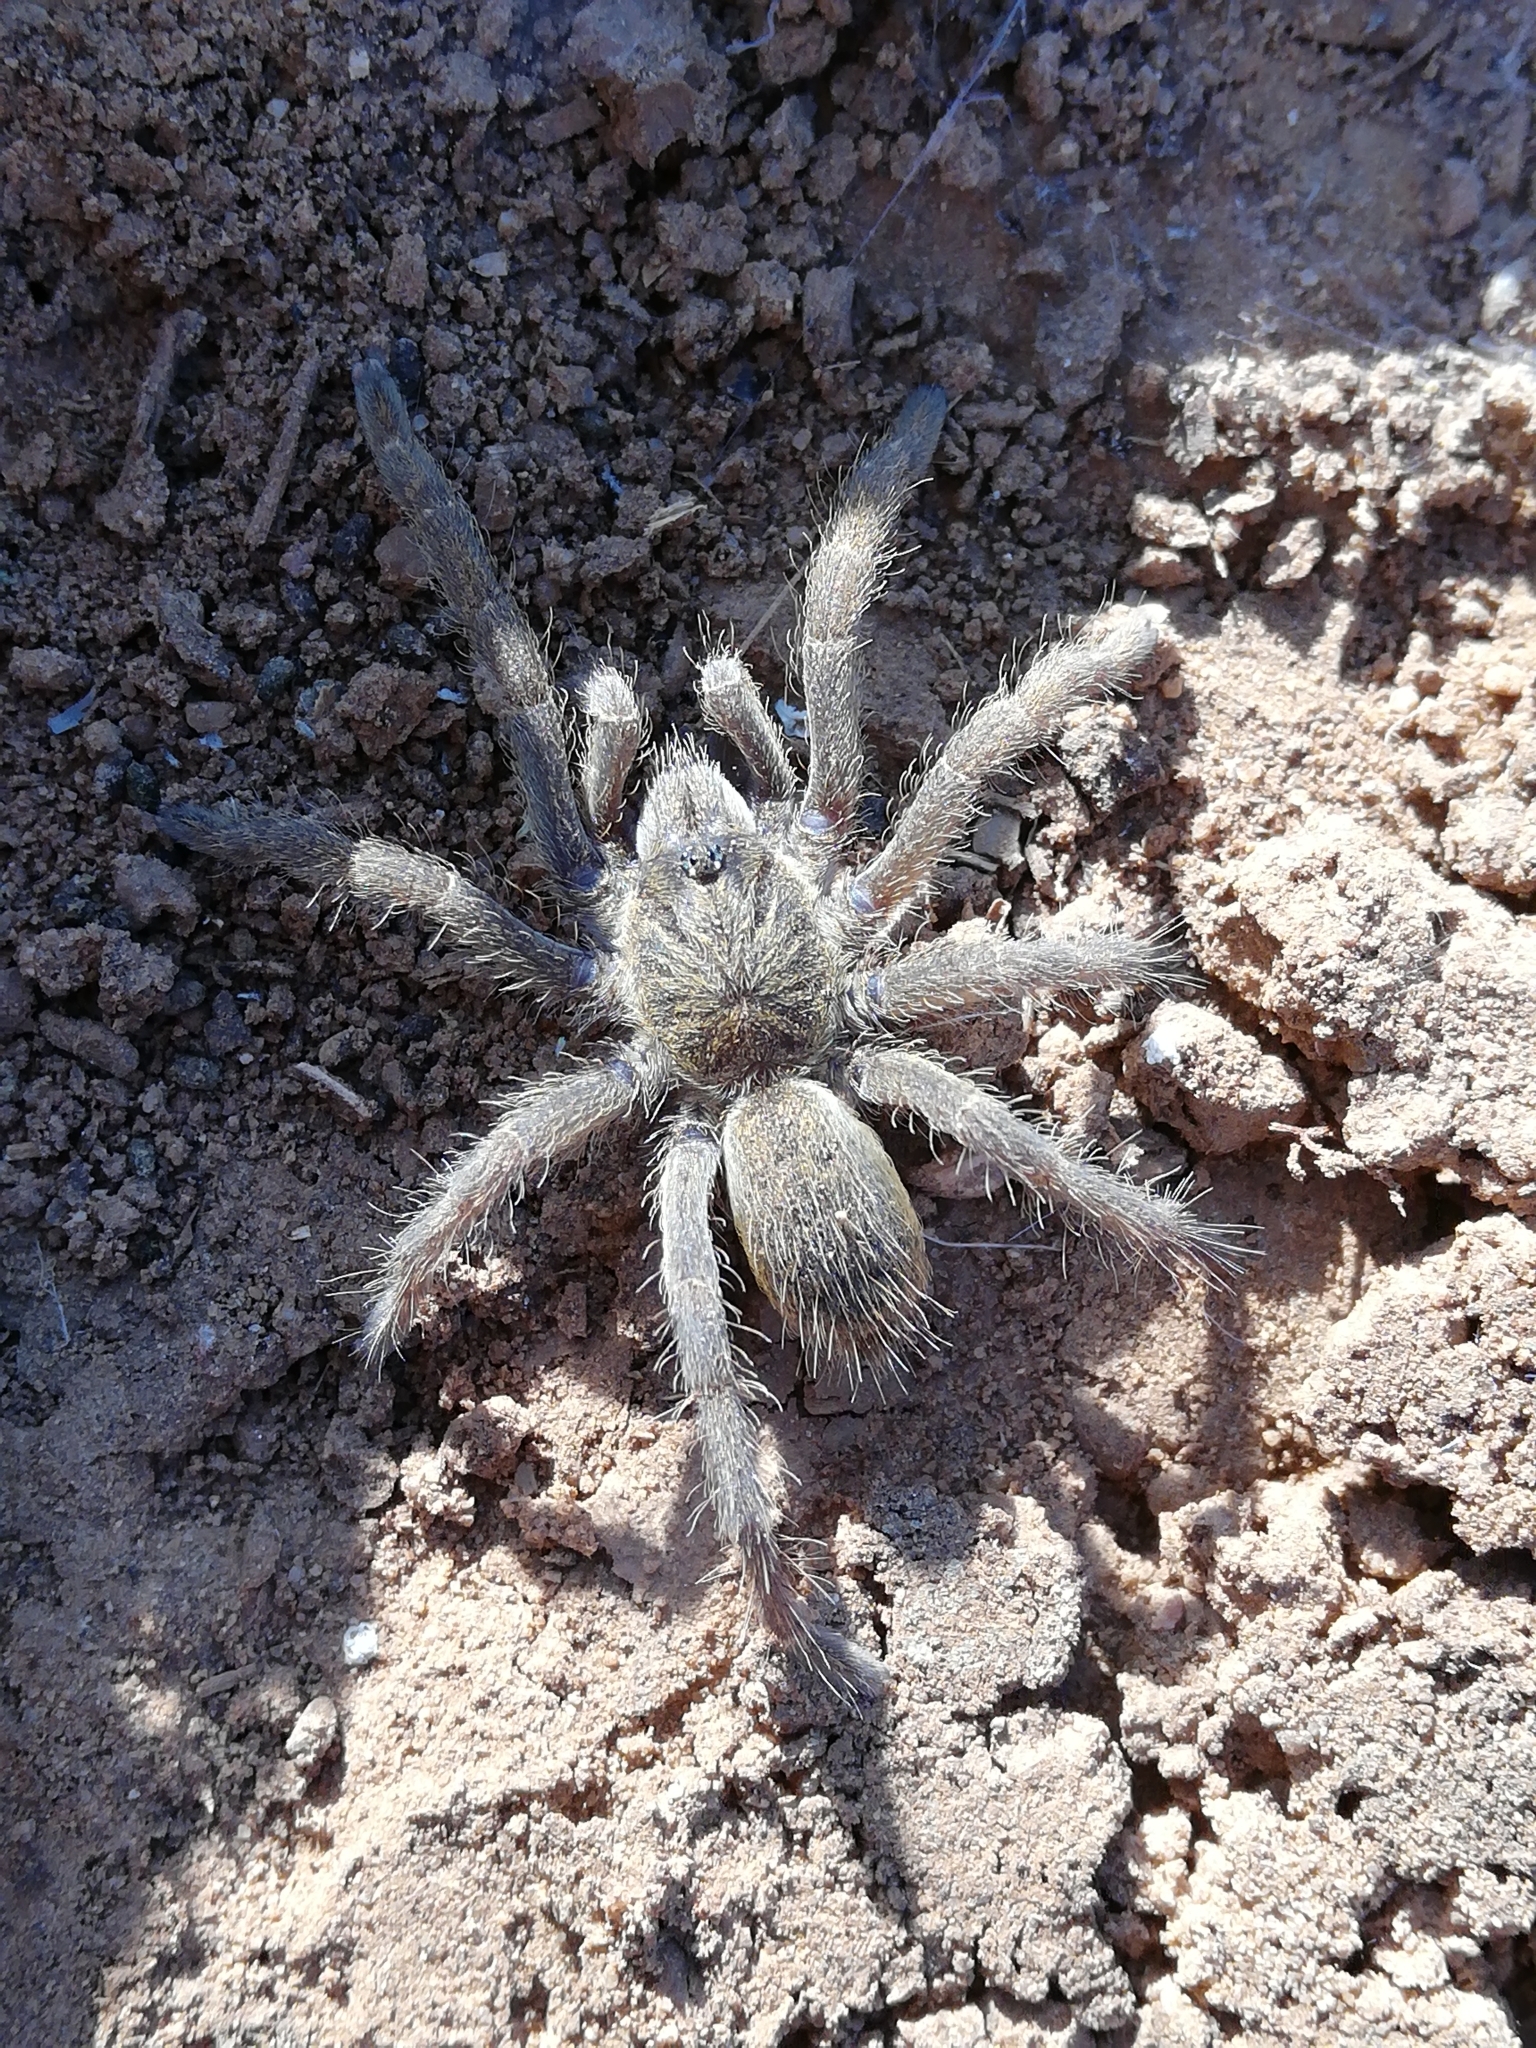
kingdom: Animalia
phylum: Arthropoda
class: Arachnida
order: Araneae
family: Theraphosidae
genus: Harpactira
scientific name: Harpactira tigrina
